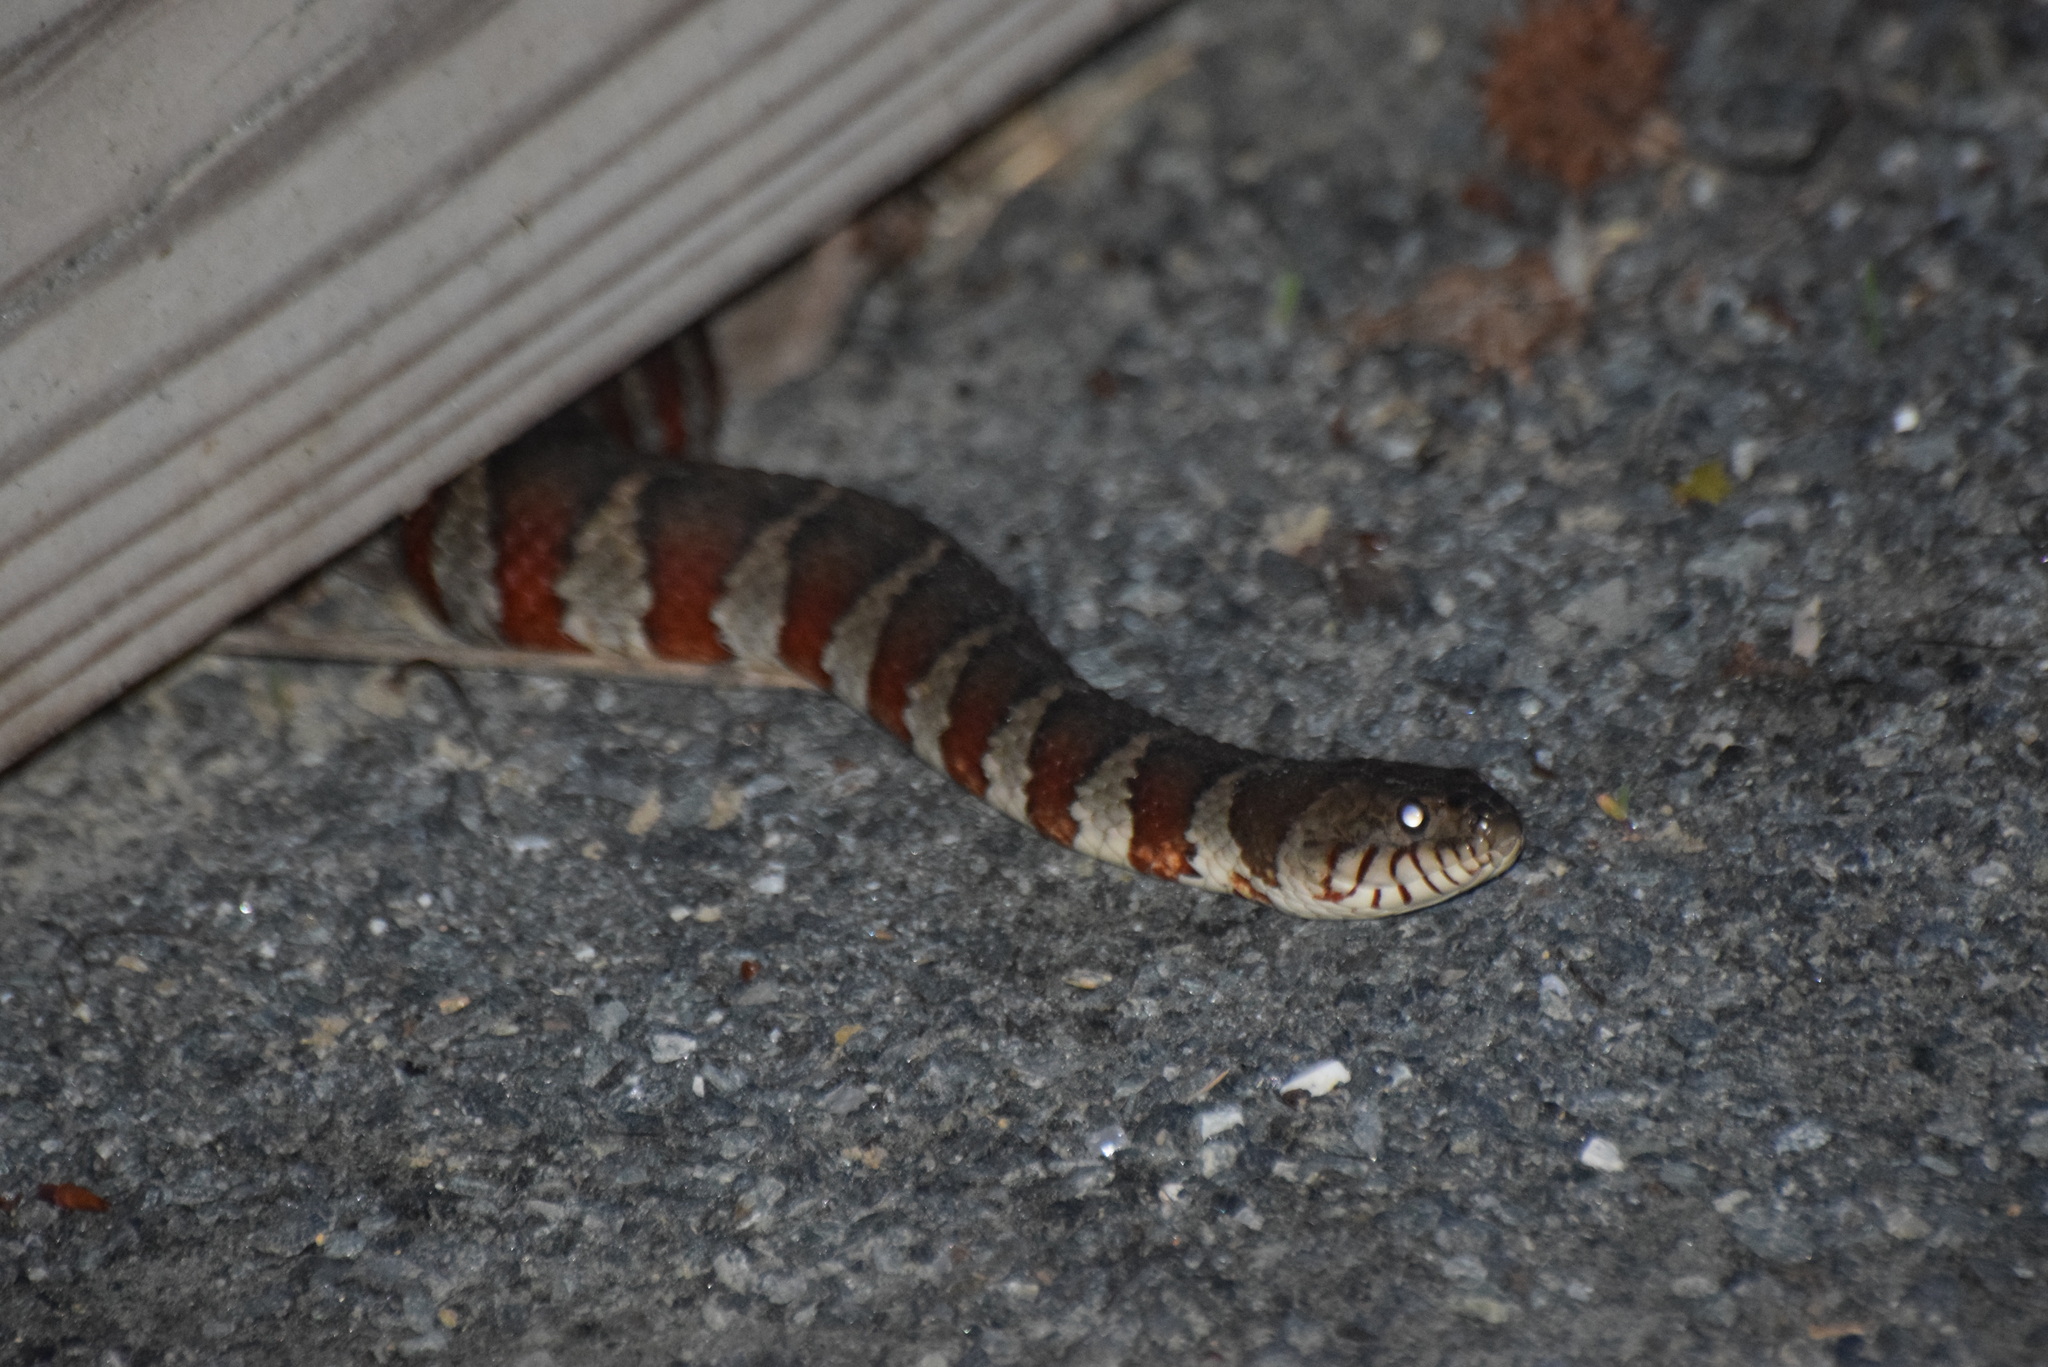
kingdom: Animalia
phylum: Chordata
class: Squamata
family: Colubridae
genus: Nerodia
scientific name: Nerodia sipedon
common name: Northern water snake
